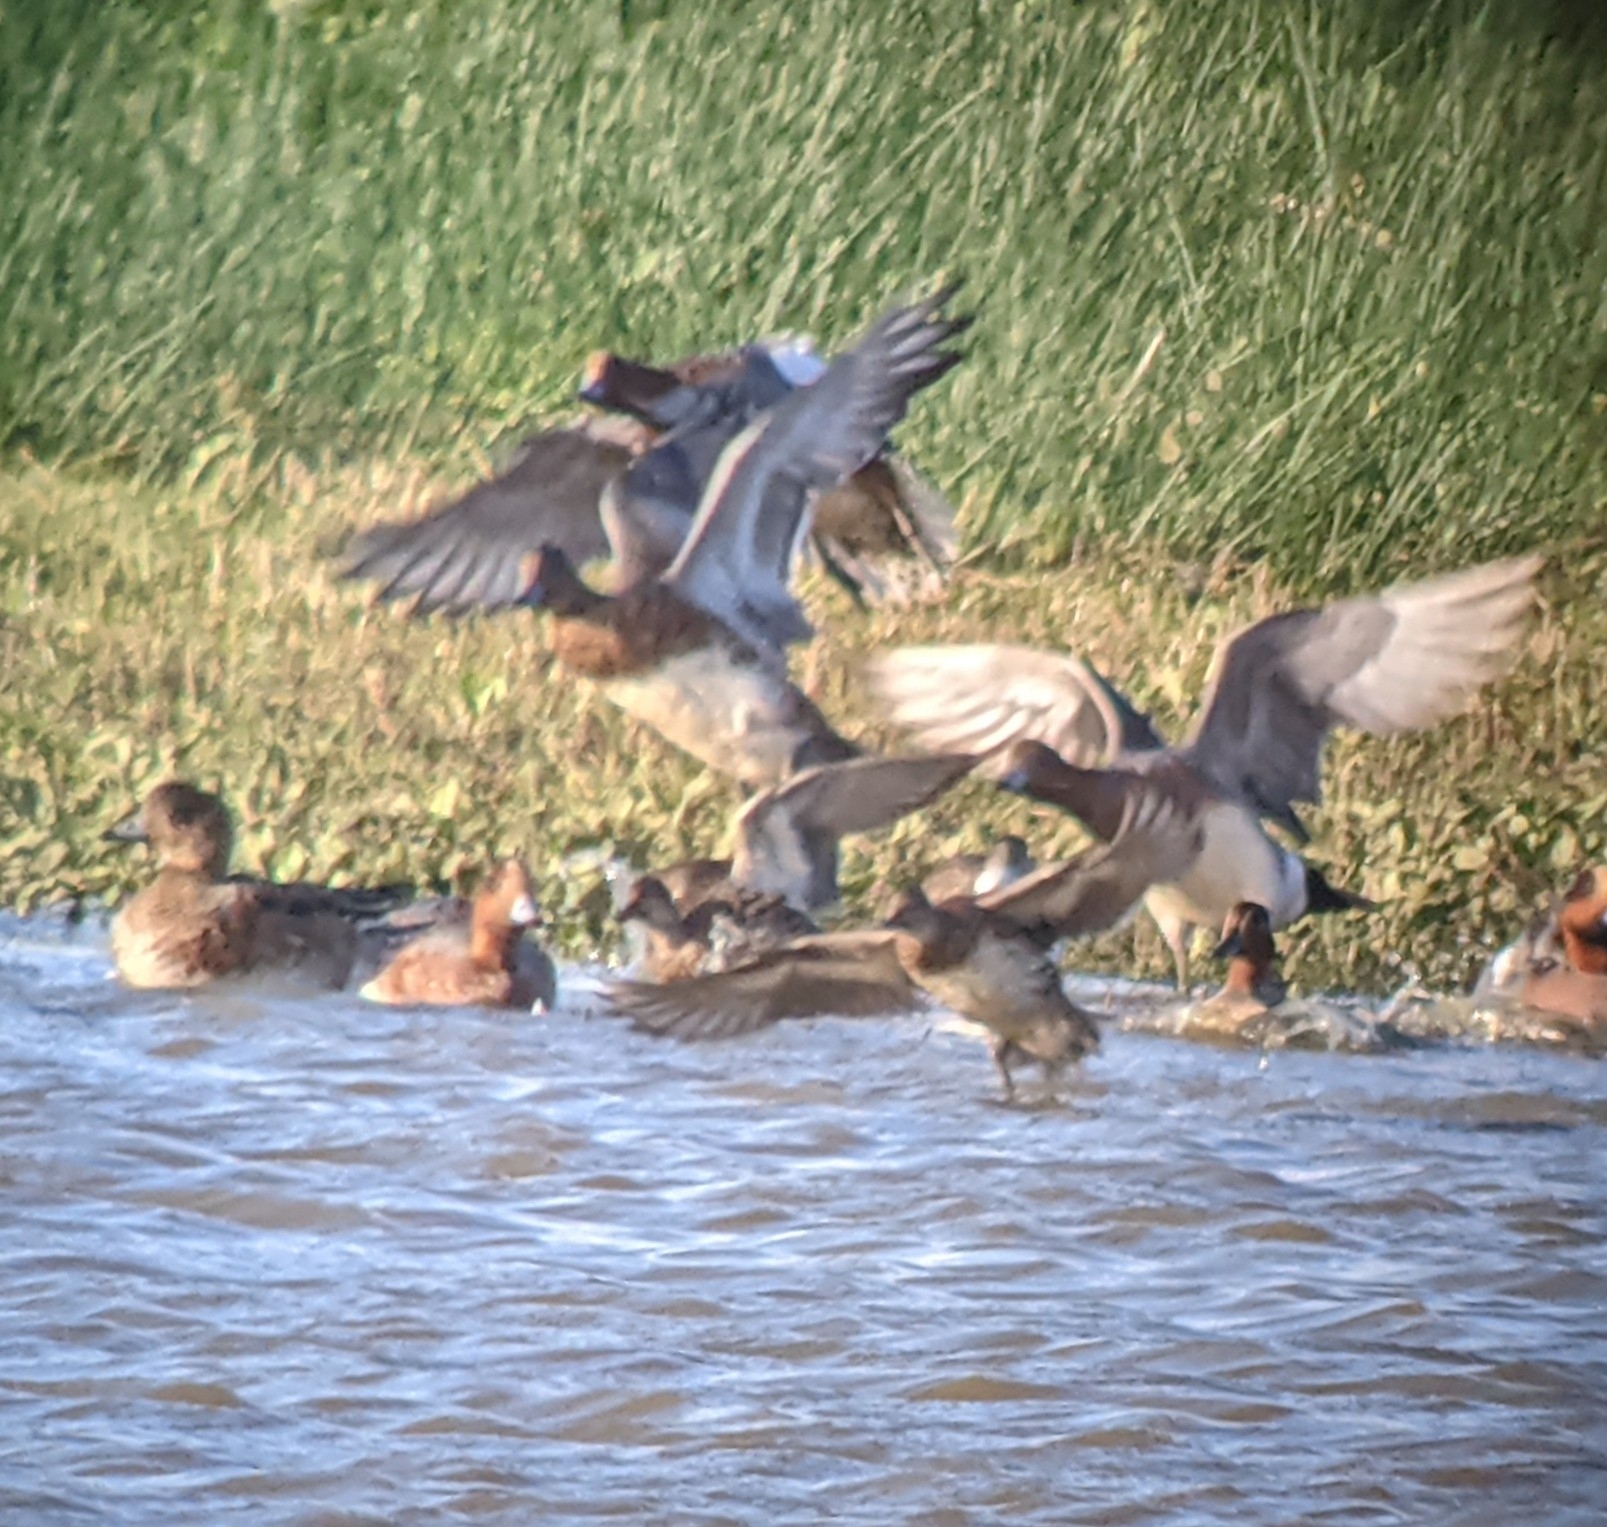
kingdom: Animalia
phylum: Chordata
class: Aves
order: Anseriformes
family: Anatidae
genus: Mareca
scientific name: Mareca penelope
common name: Eurasian wigeon
